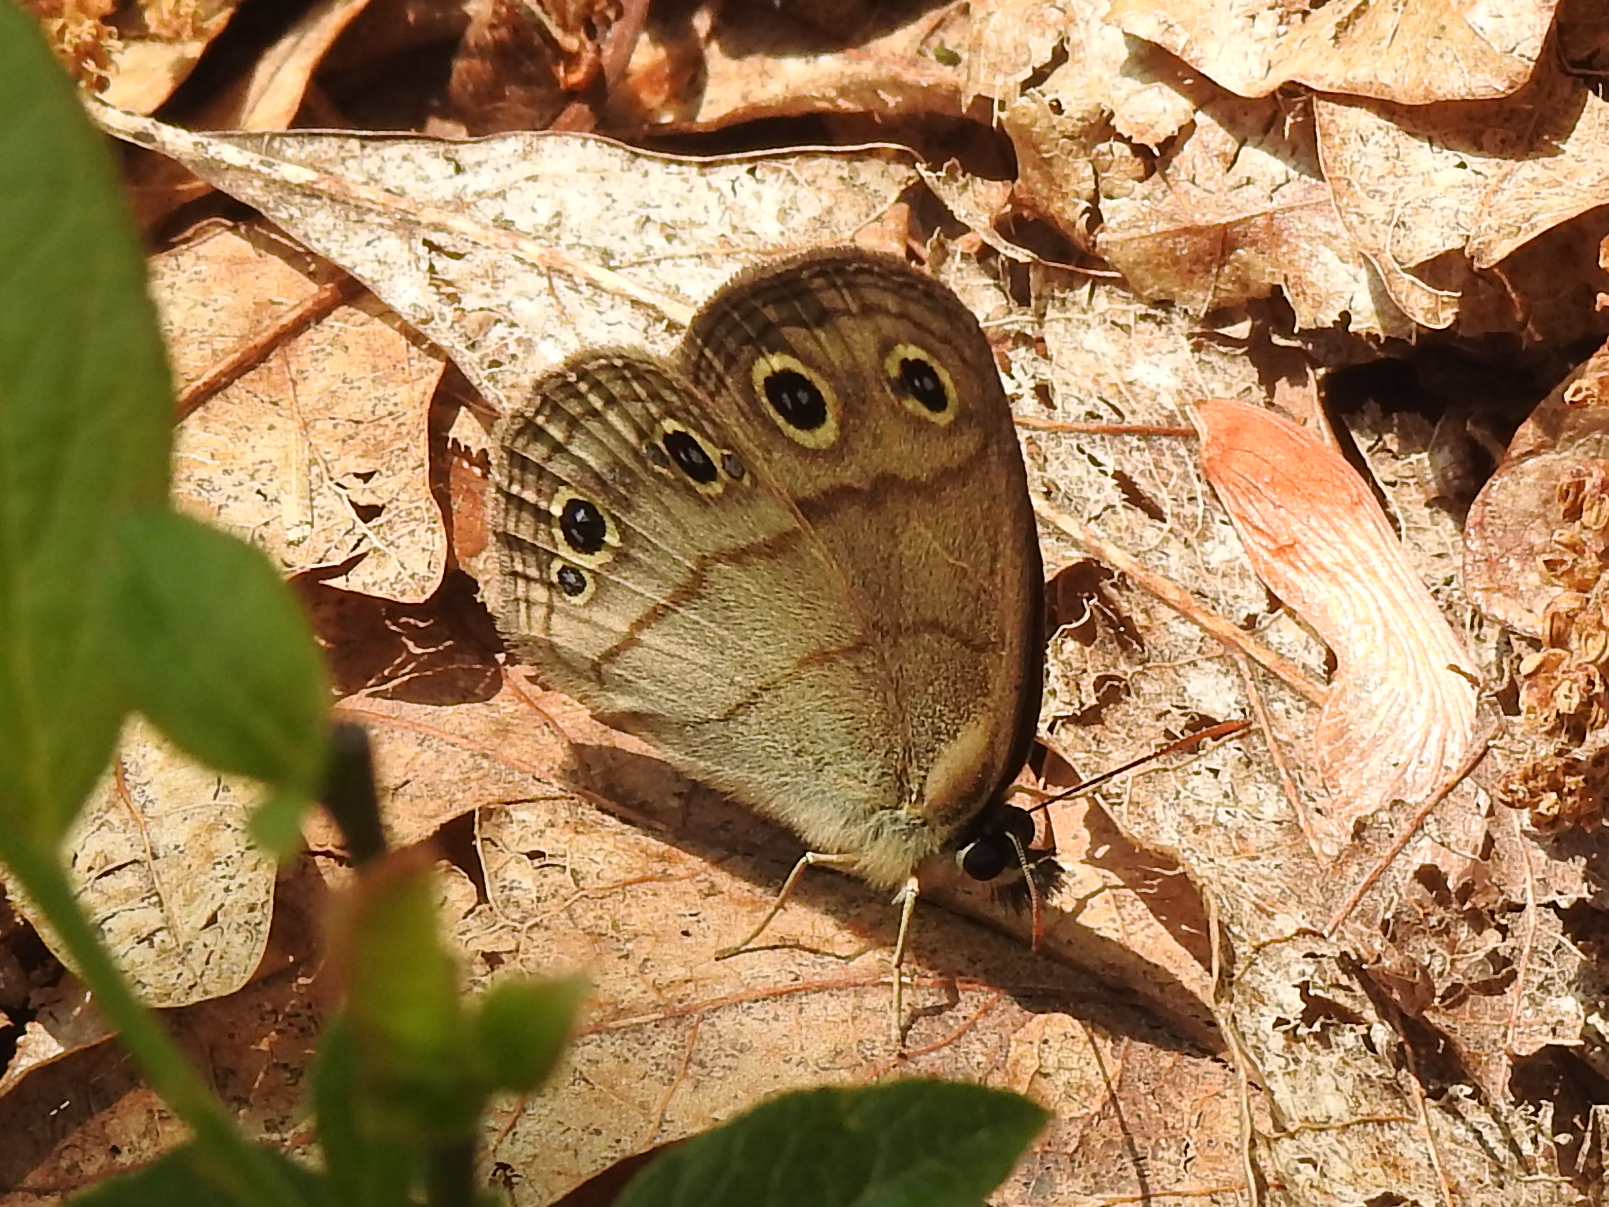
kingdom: Animalia
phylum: Arthropoda
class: Insecta
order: Lepidoptera
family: Nymphalidae
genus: Euptychia
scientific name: Euptychia cymela
